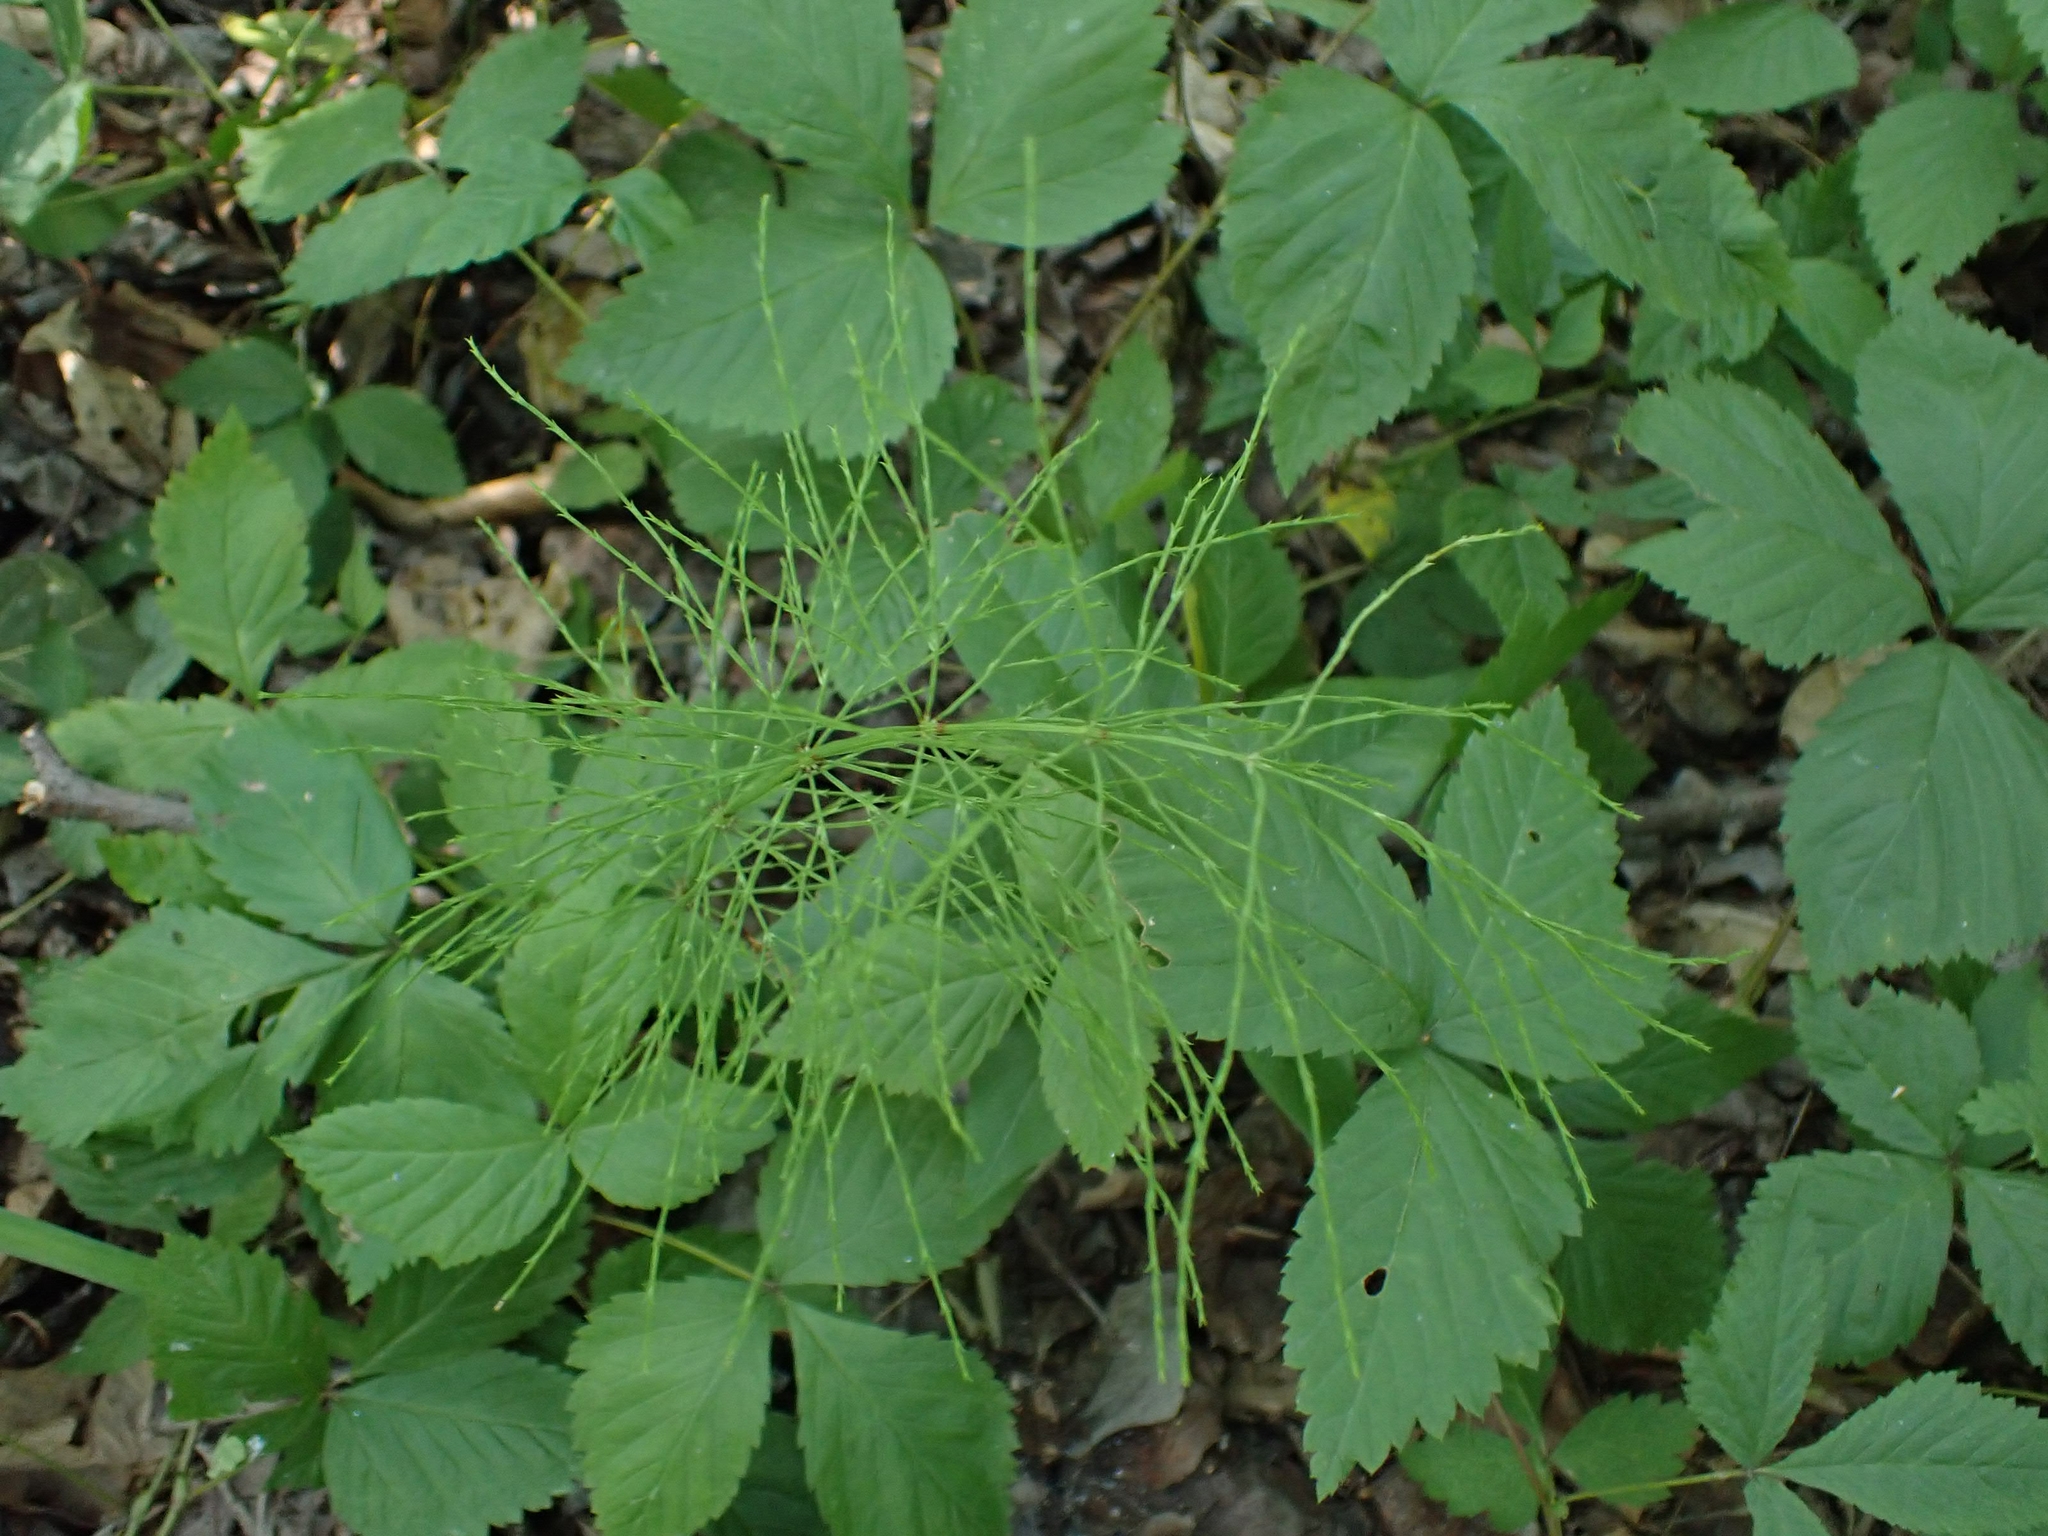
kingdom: Plantae
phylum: Tracheophyta
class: Polypodiopsida
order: Equisetales
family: Equisetaceae
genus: Equisetum
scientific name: Equisetum sylvaticum
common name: Wood horsetail
